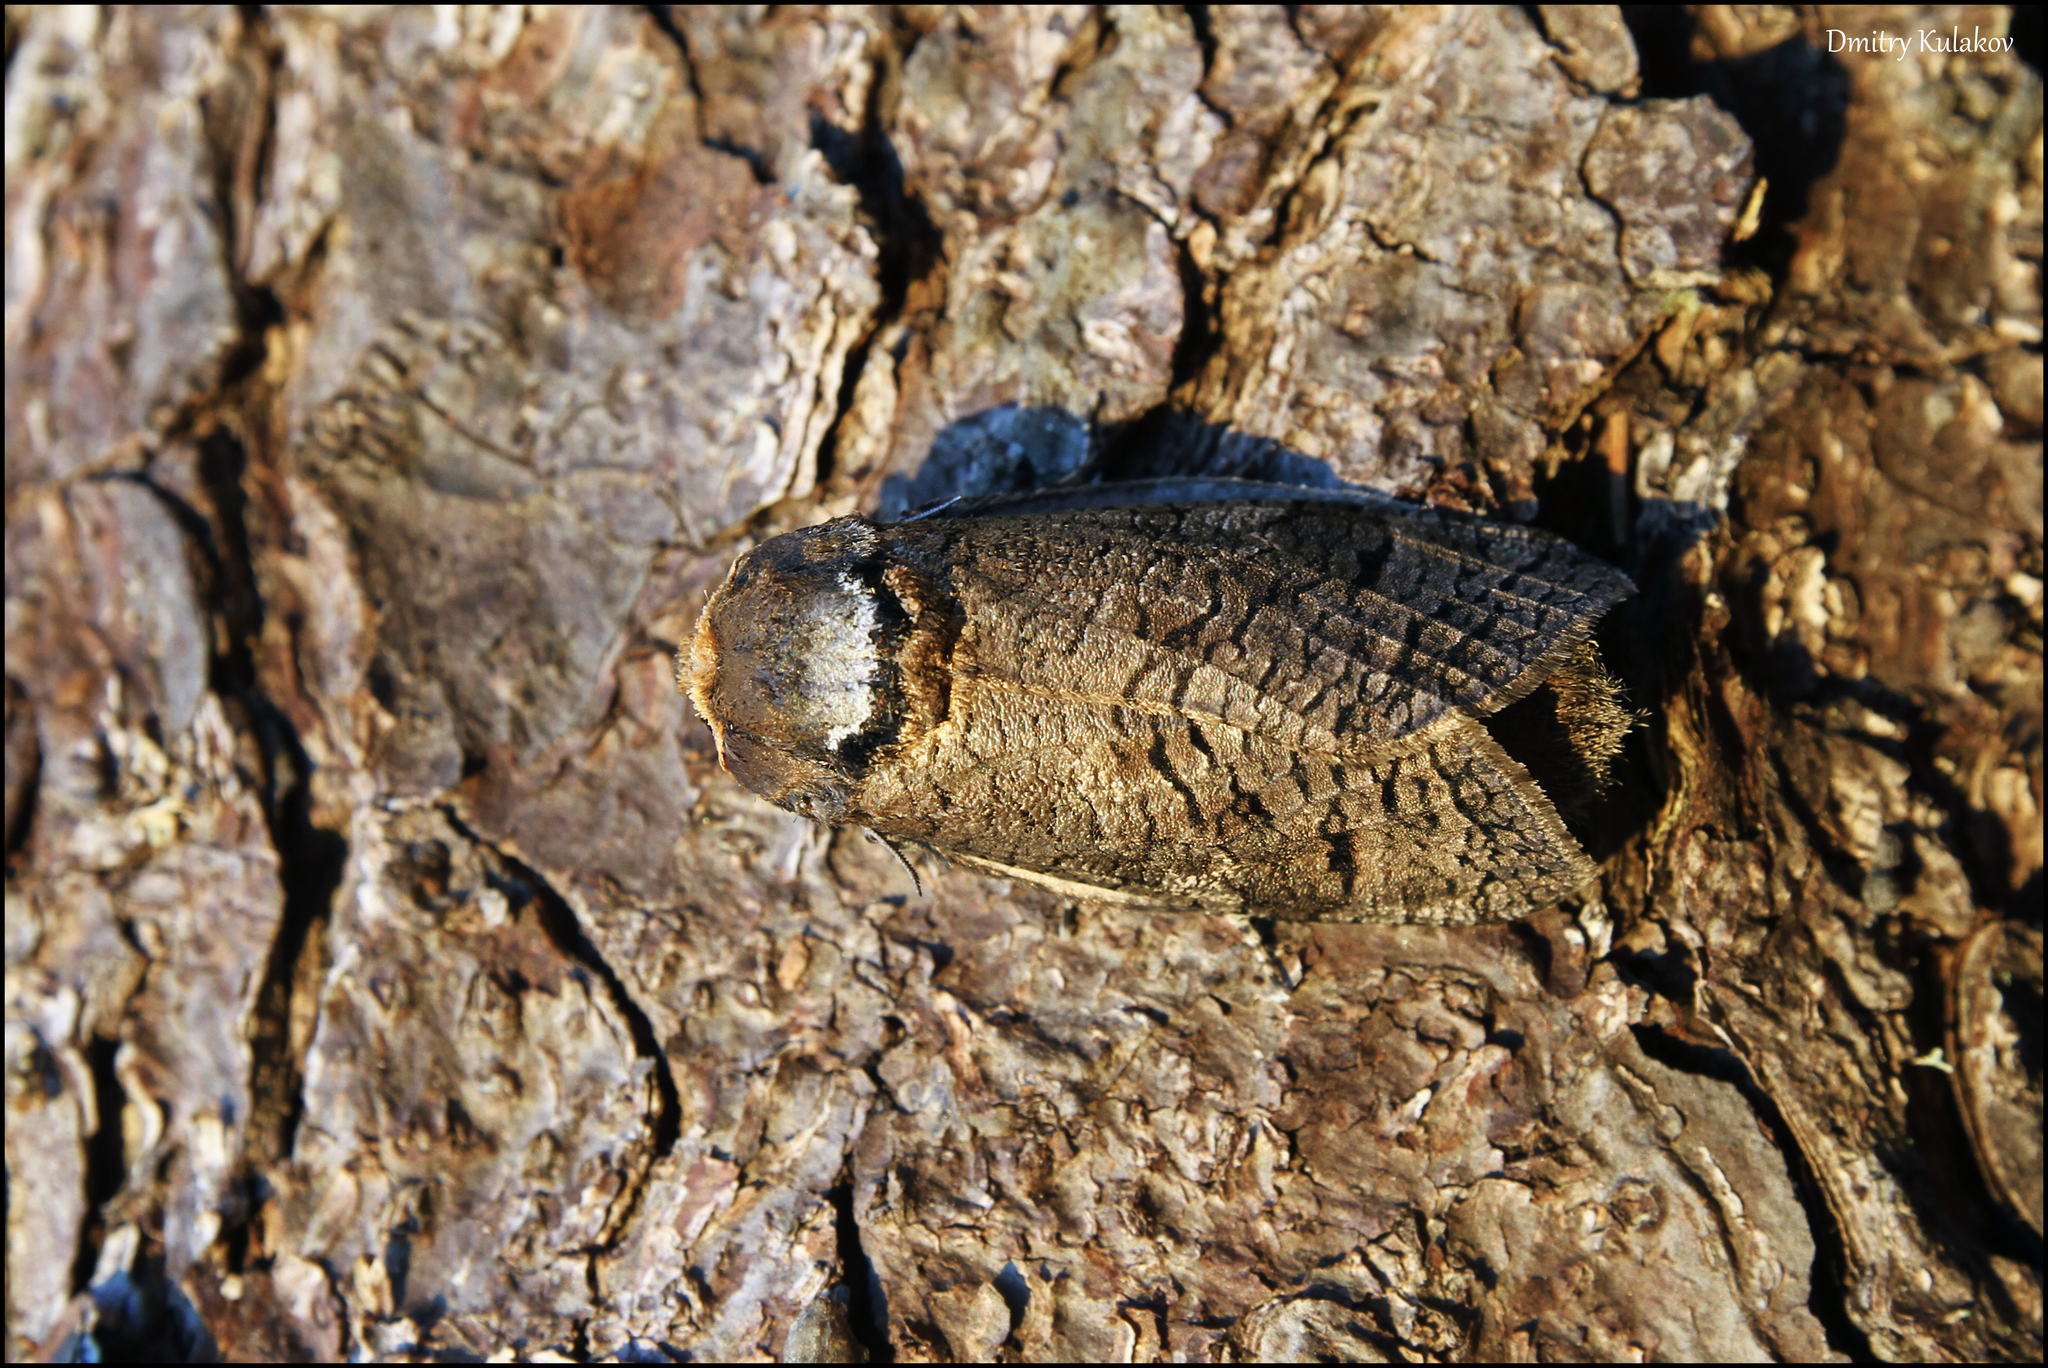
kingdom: Animalia
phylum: Arthropoda
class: Insecta
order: Lepidoptera
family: Cossidae
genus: Cossus
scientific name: Cossus cossus
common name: Goat moth
